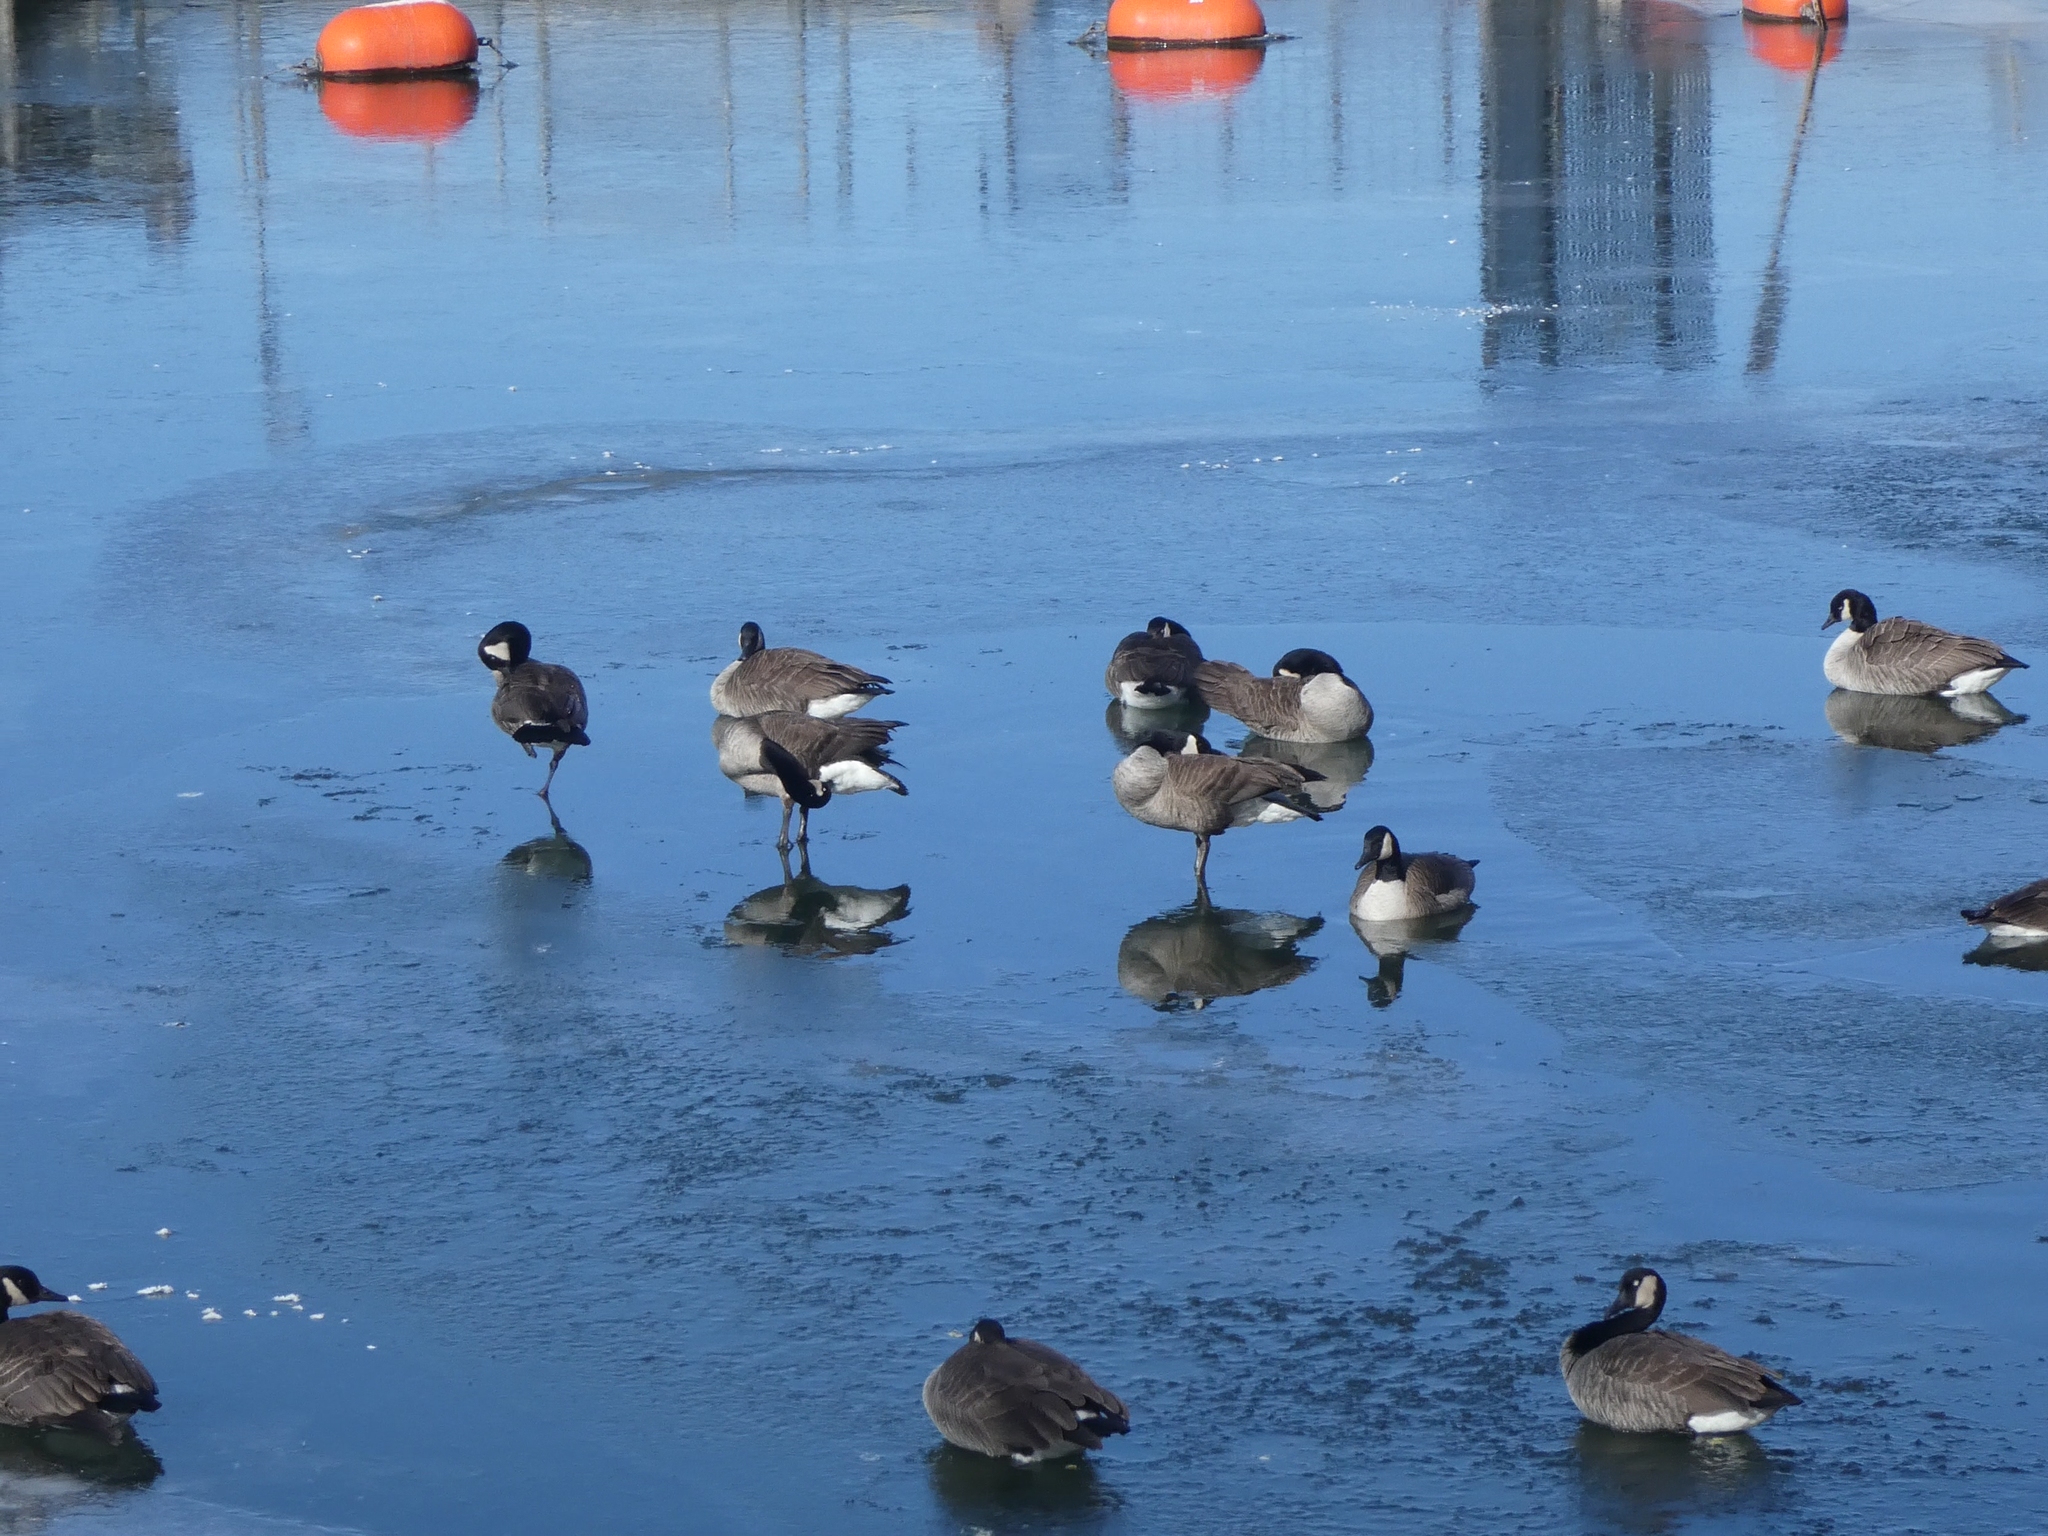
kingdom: Animalia
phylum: Chordata
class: Aves
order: Anseriformes
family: Anatidae
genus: Branta
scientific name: Branta canadensis
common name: Canada goose
